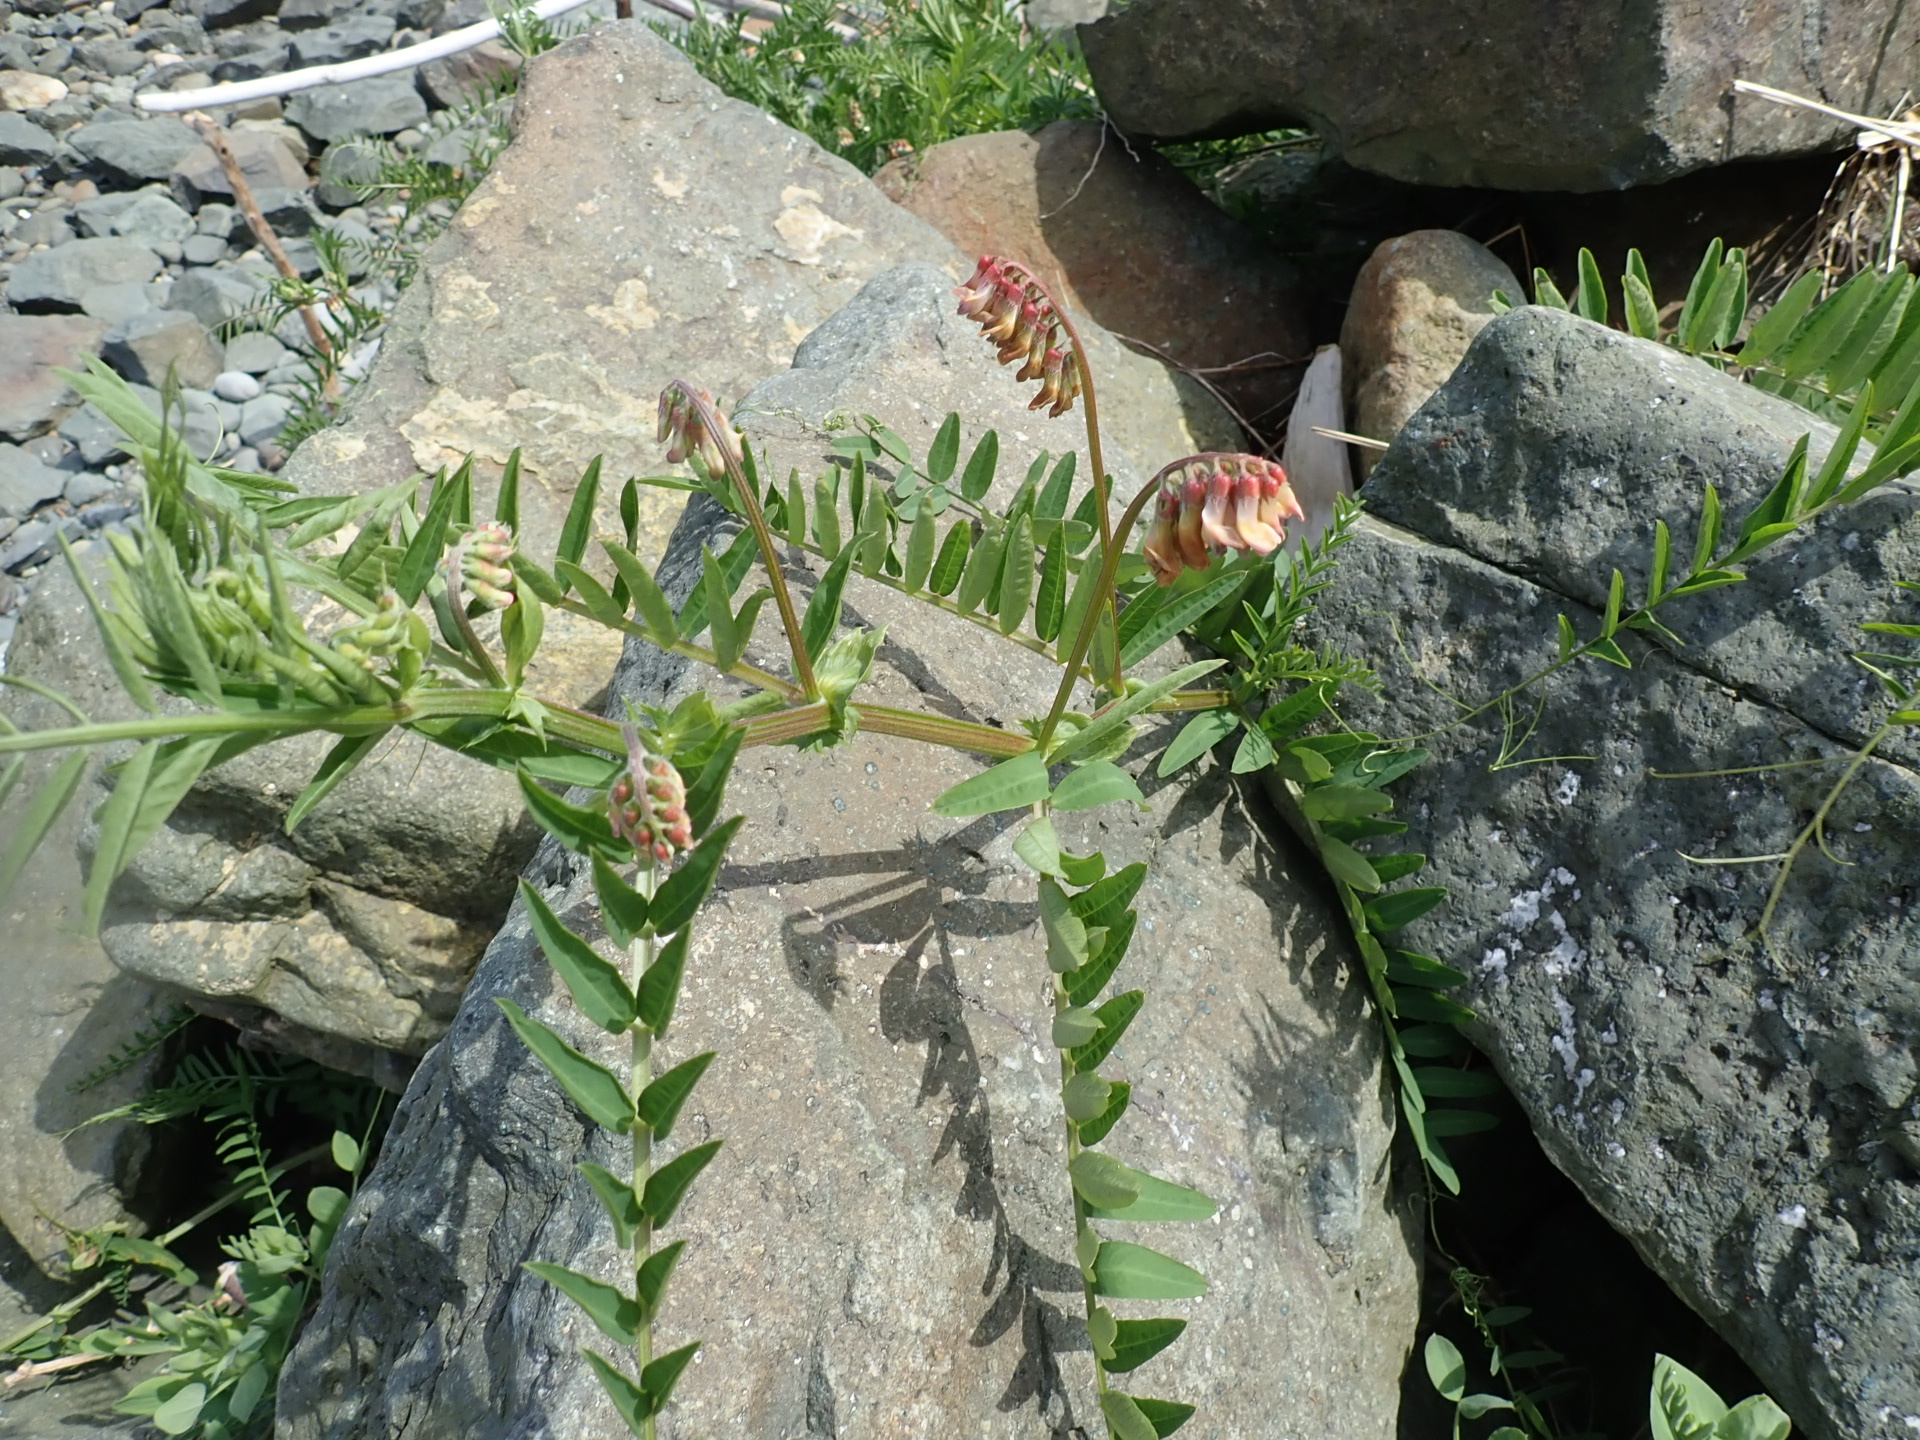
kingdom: Plantae
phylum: Tracheophyta
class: Magnoliopsida
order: Fabales
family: Fabaceae
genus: Vicia
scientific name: Vicia
